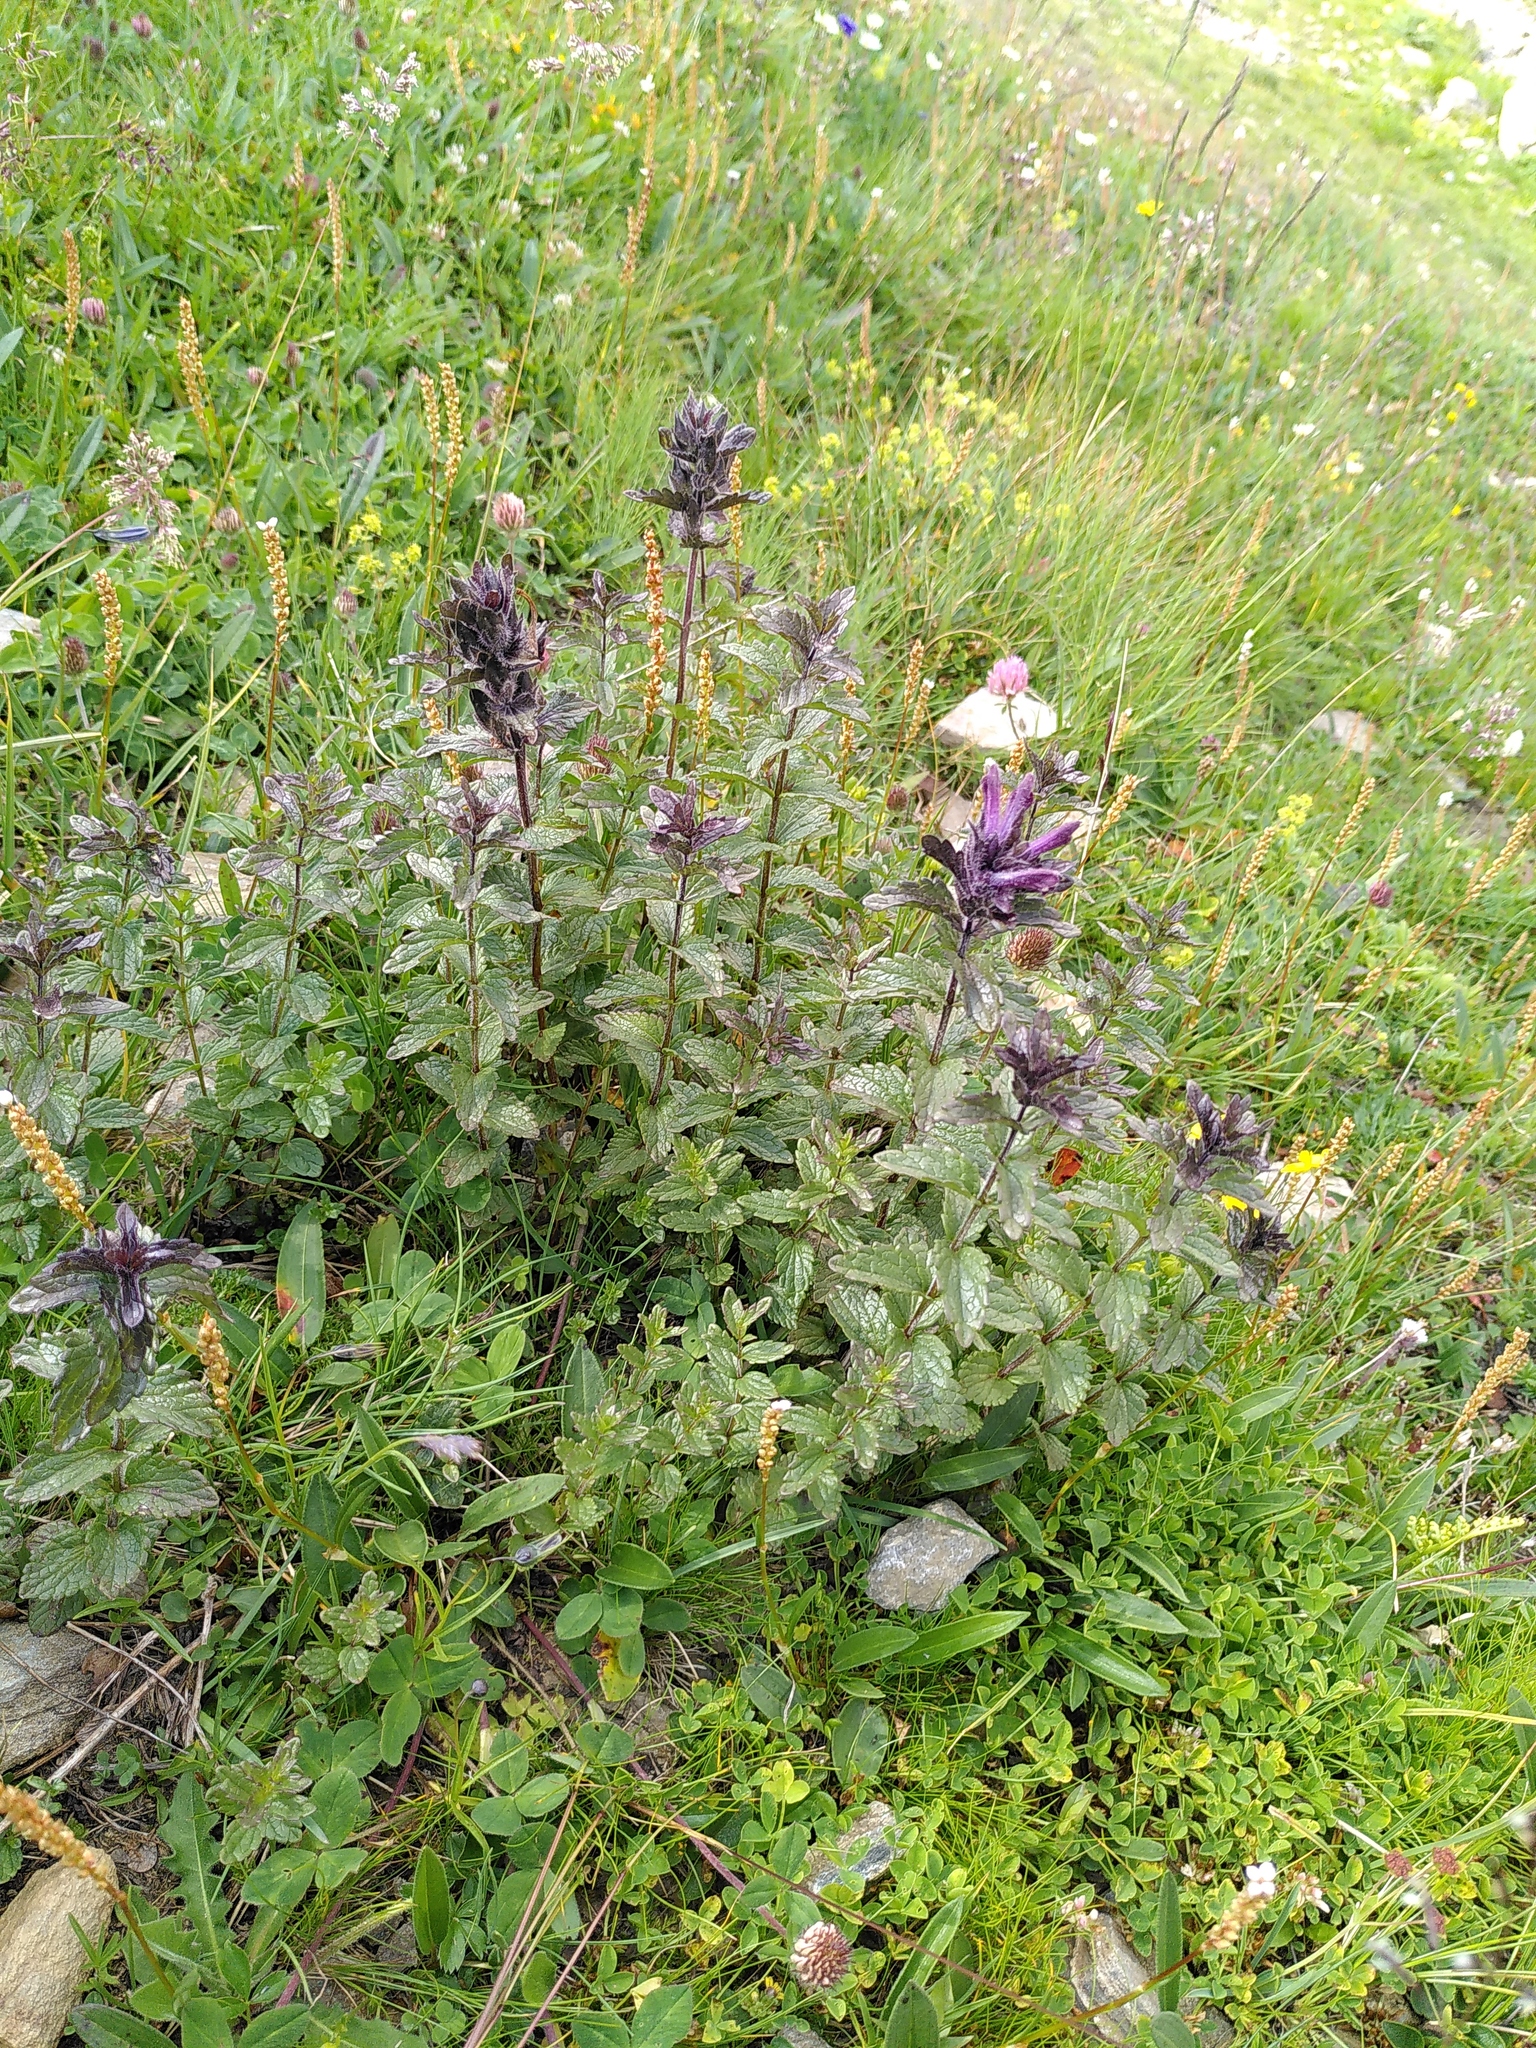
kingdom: Plantae
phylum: Tracheophyta
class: Magnoliopsida
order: Lamiales
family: Orobanchaceae
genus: Bartsia
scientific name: Bartsia alpina
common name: Alpine bartsia
